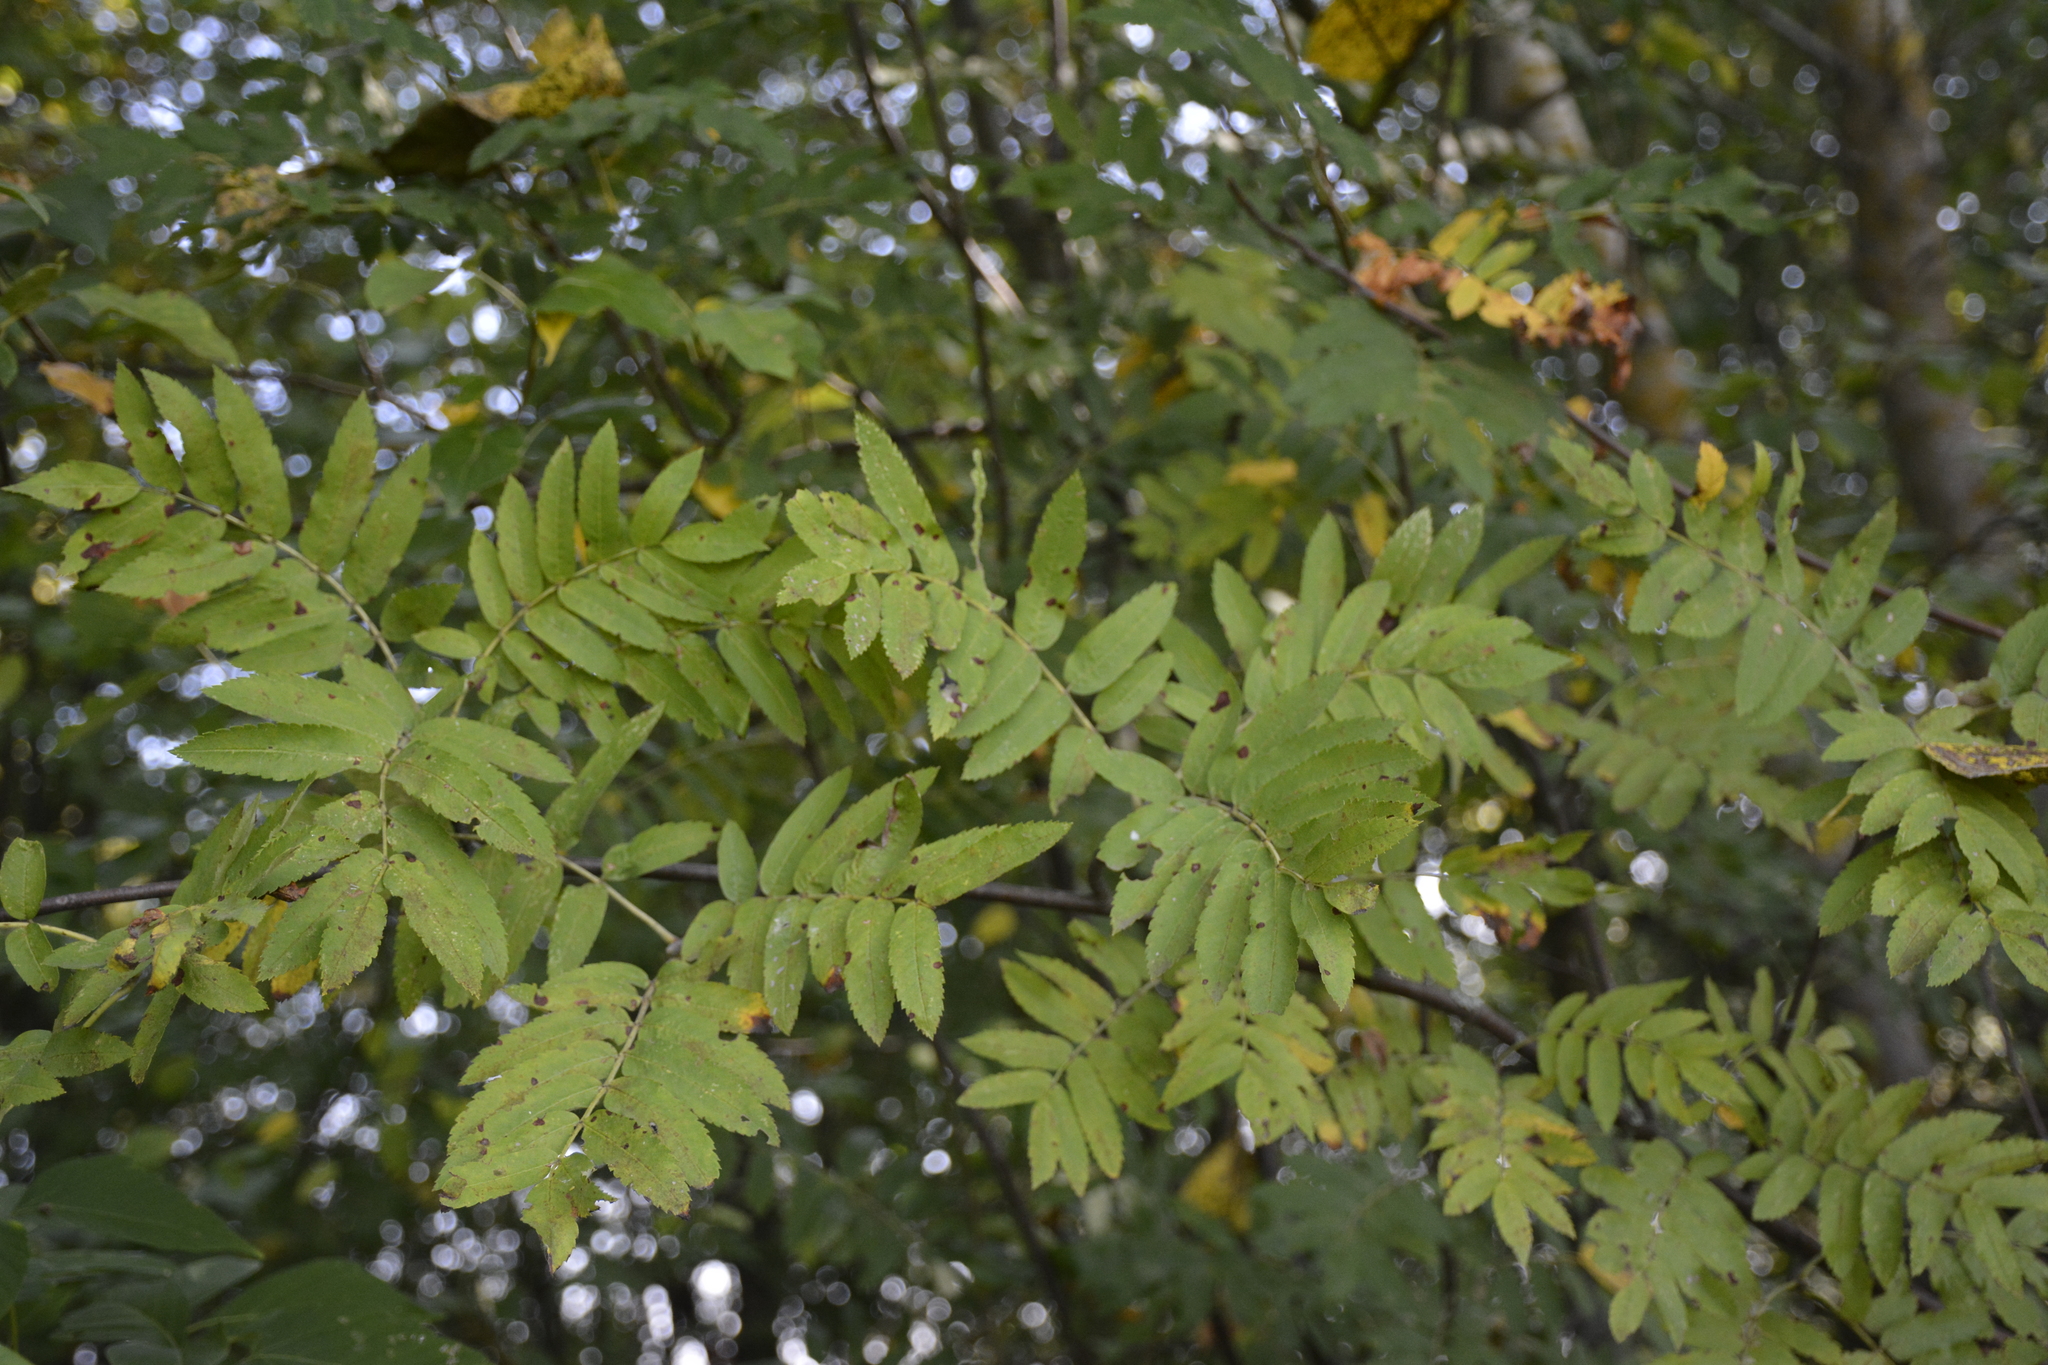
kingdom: Plantae
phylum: Tracheophyta
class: Magnoliopsida
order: Rosales
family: Rosaceae
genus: Sorbus
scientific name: Sorbus aucuparia
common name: Rowan
